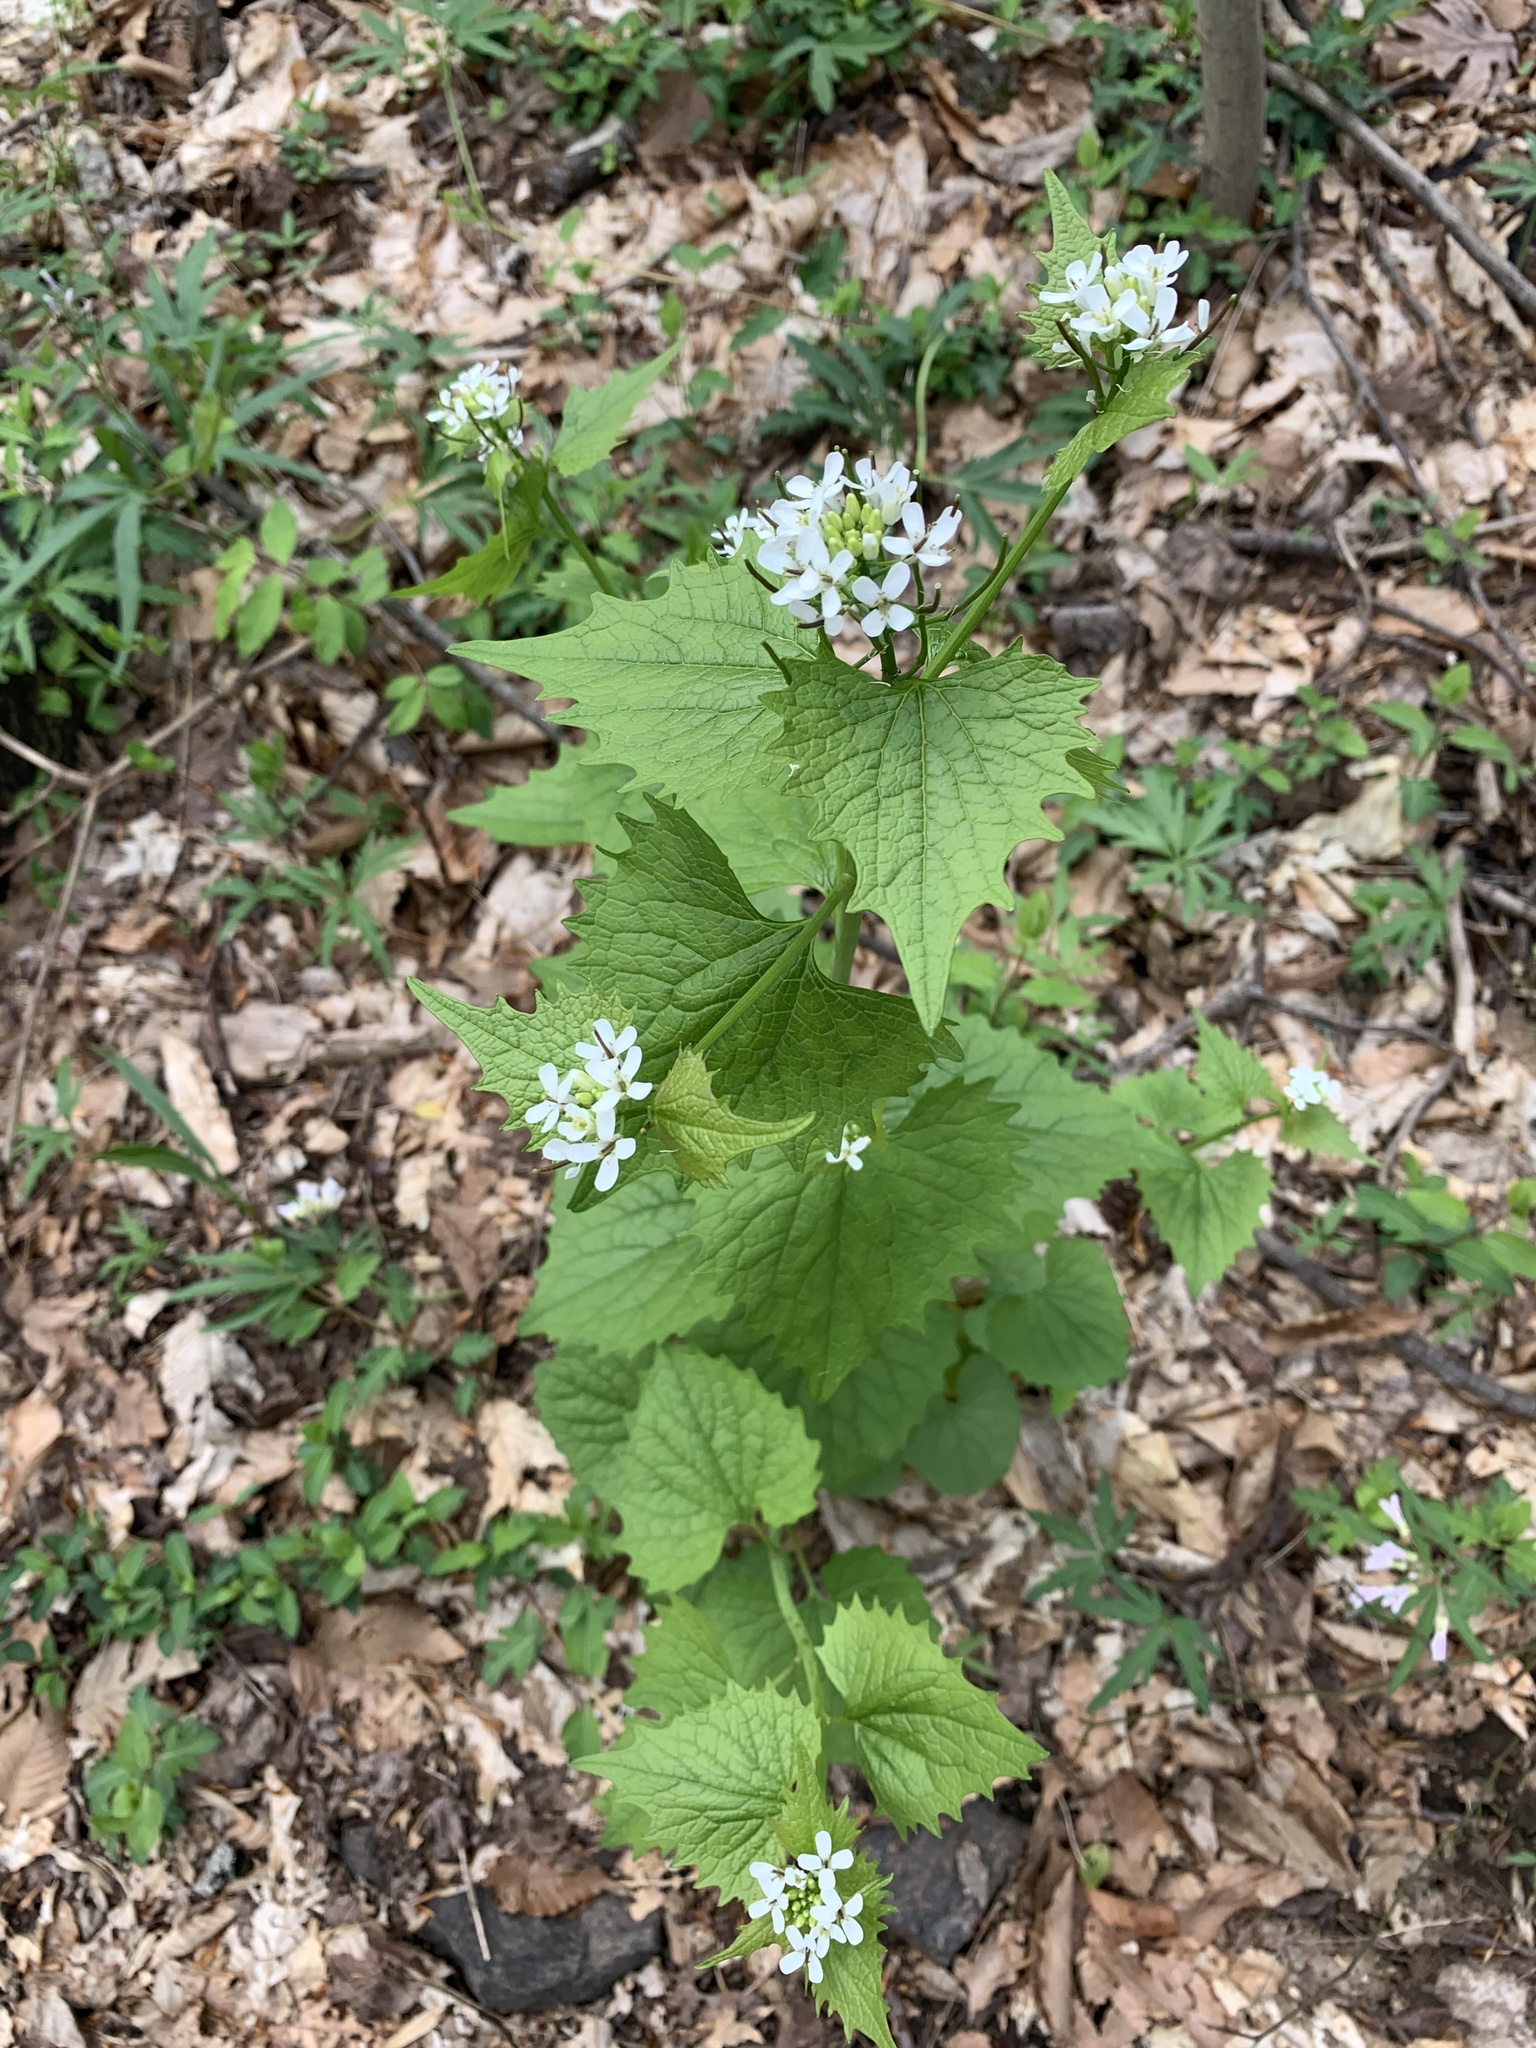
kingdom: Plantae
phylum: Tracheophyta
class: Magnoliopsida
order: Brassicales
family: Brassicaceae
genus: Alliaria
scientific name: Alliaria petiolata
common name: Garlic mustard
